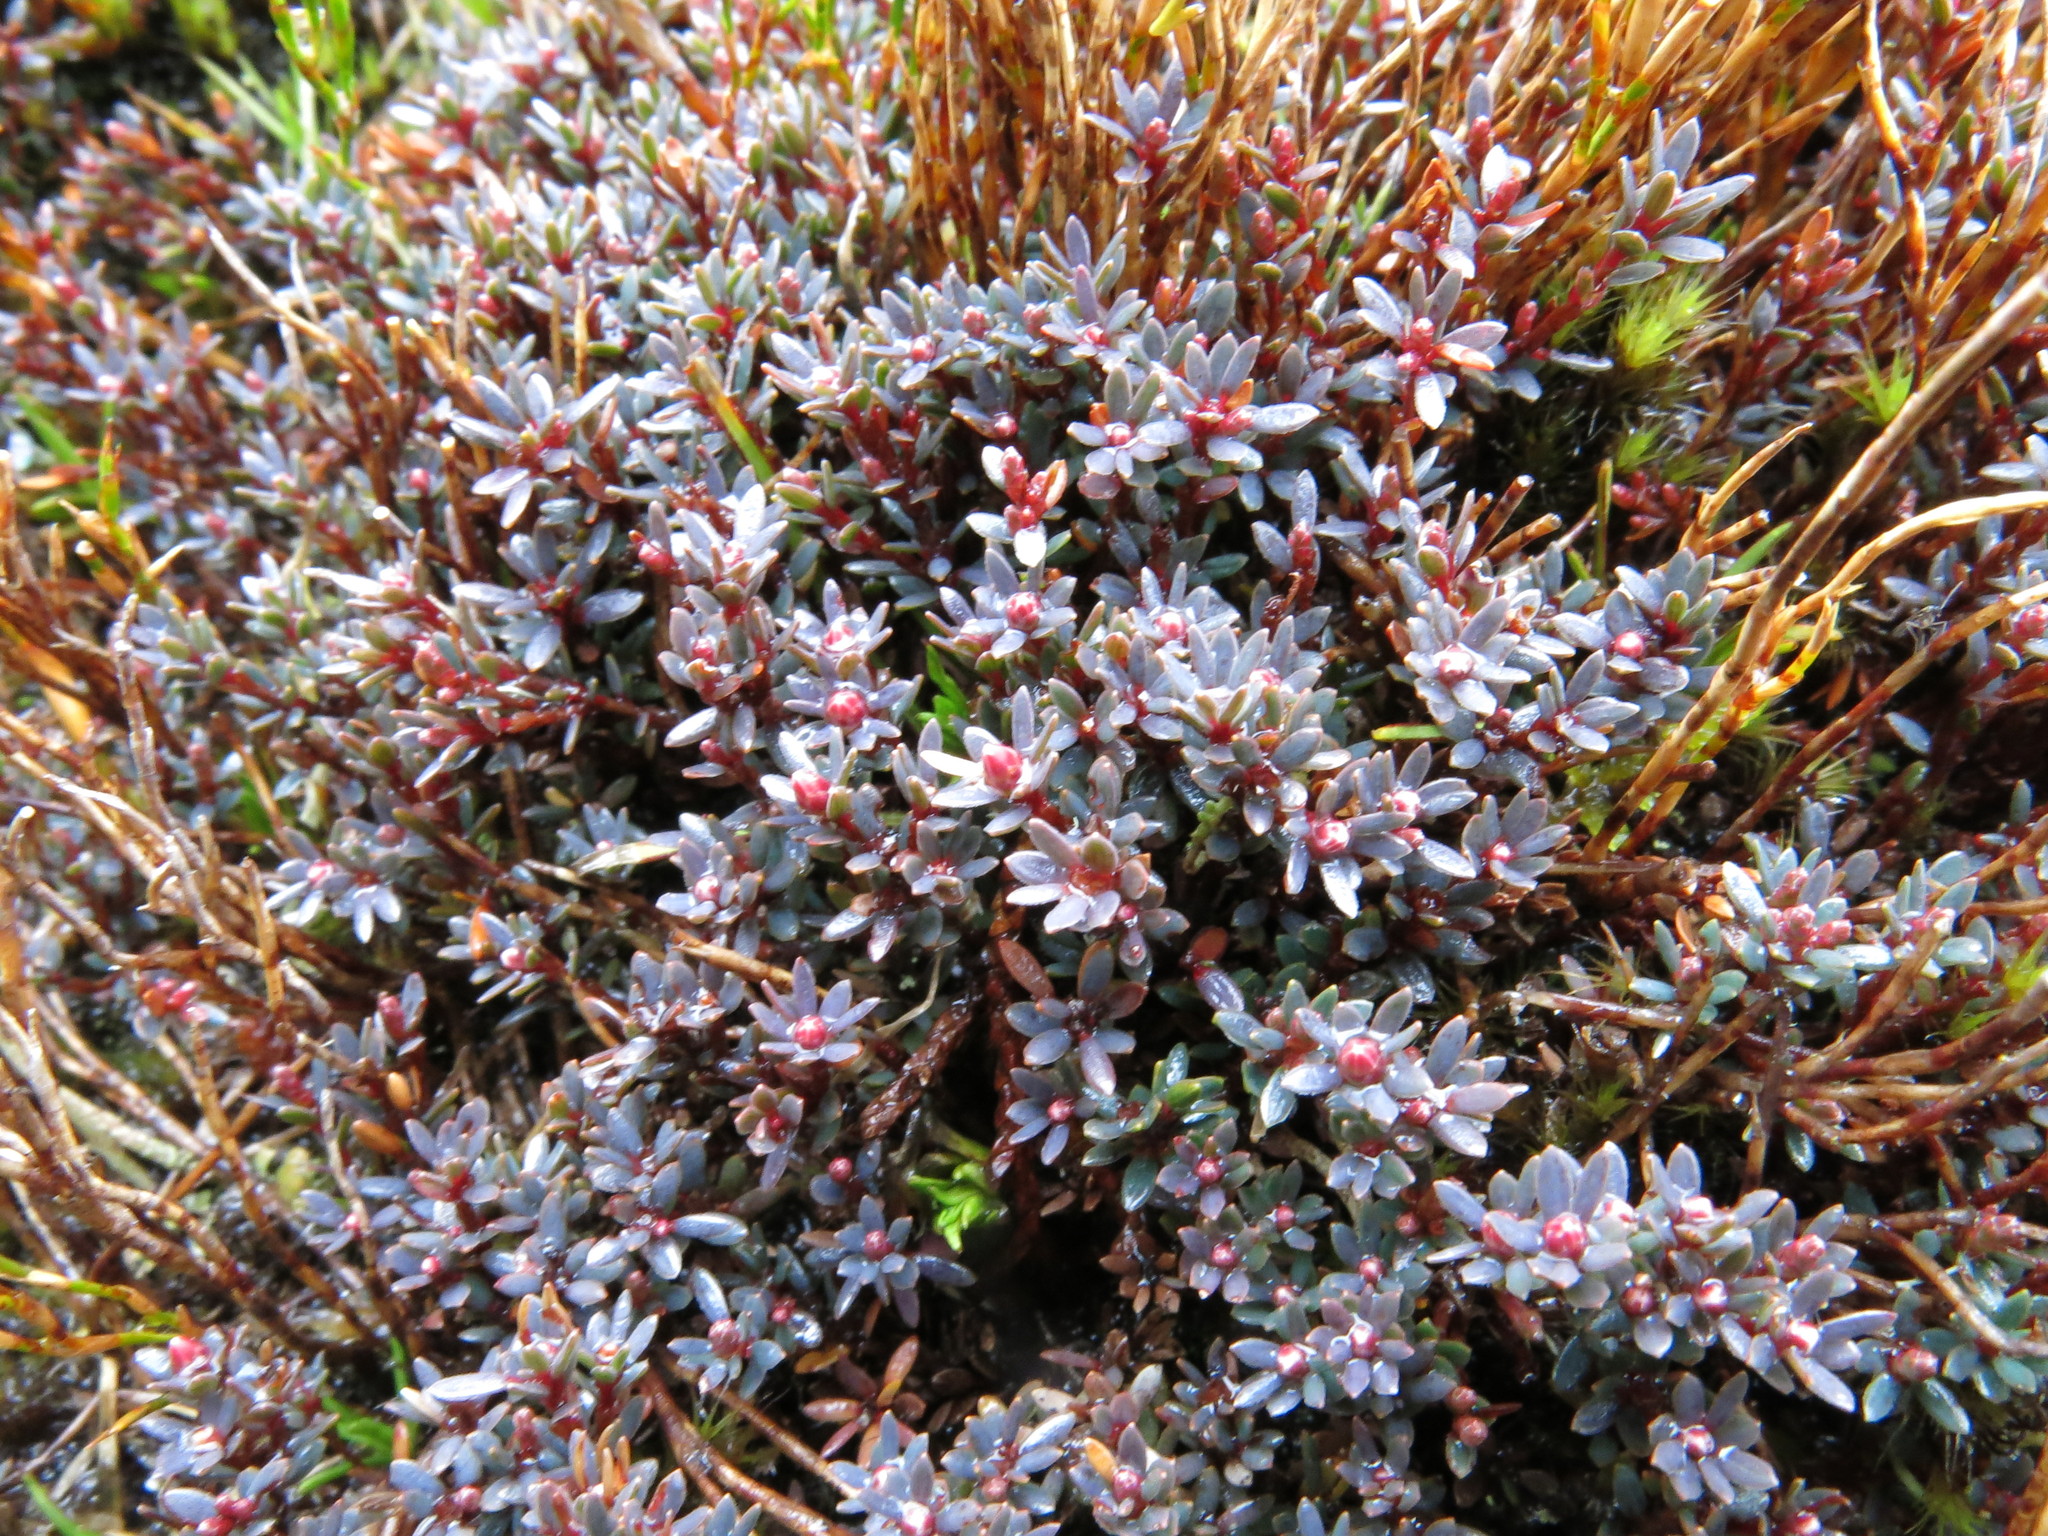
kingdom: Plantae
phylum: Tracheophyta
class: Magnoliopsida
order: Ericales
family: Ericaceae
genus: Pentachondra
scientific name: Pentachondra pumila
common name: Carpet-heath
